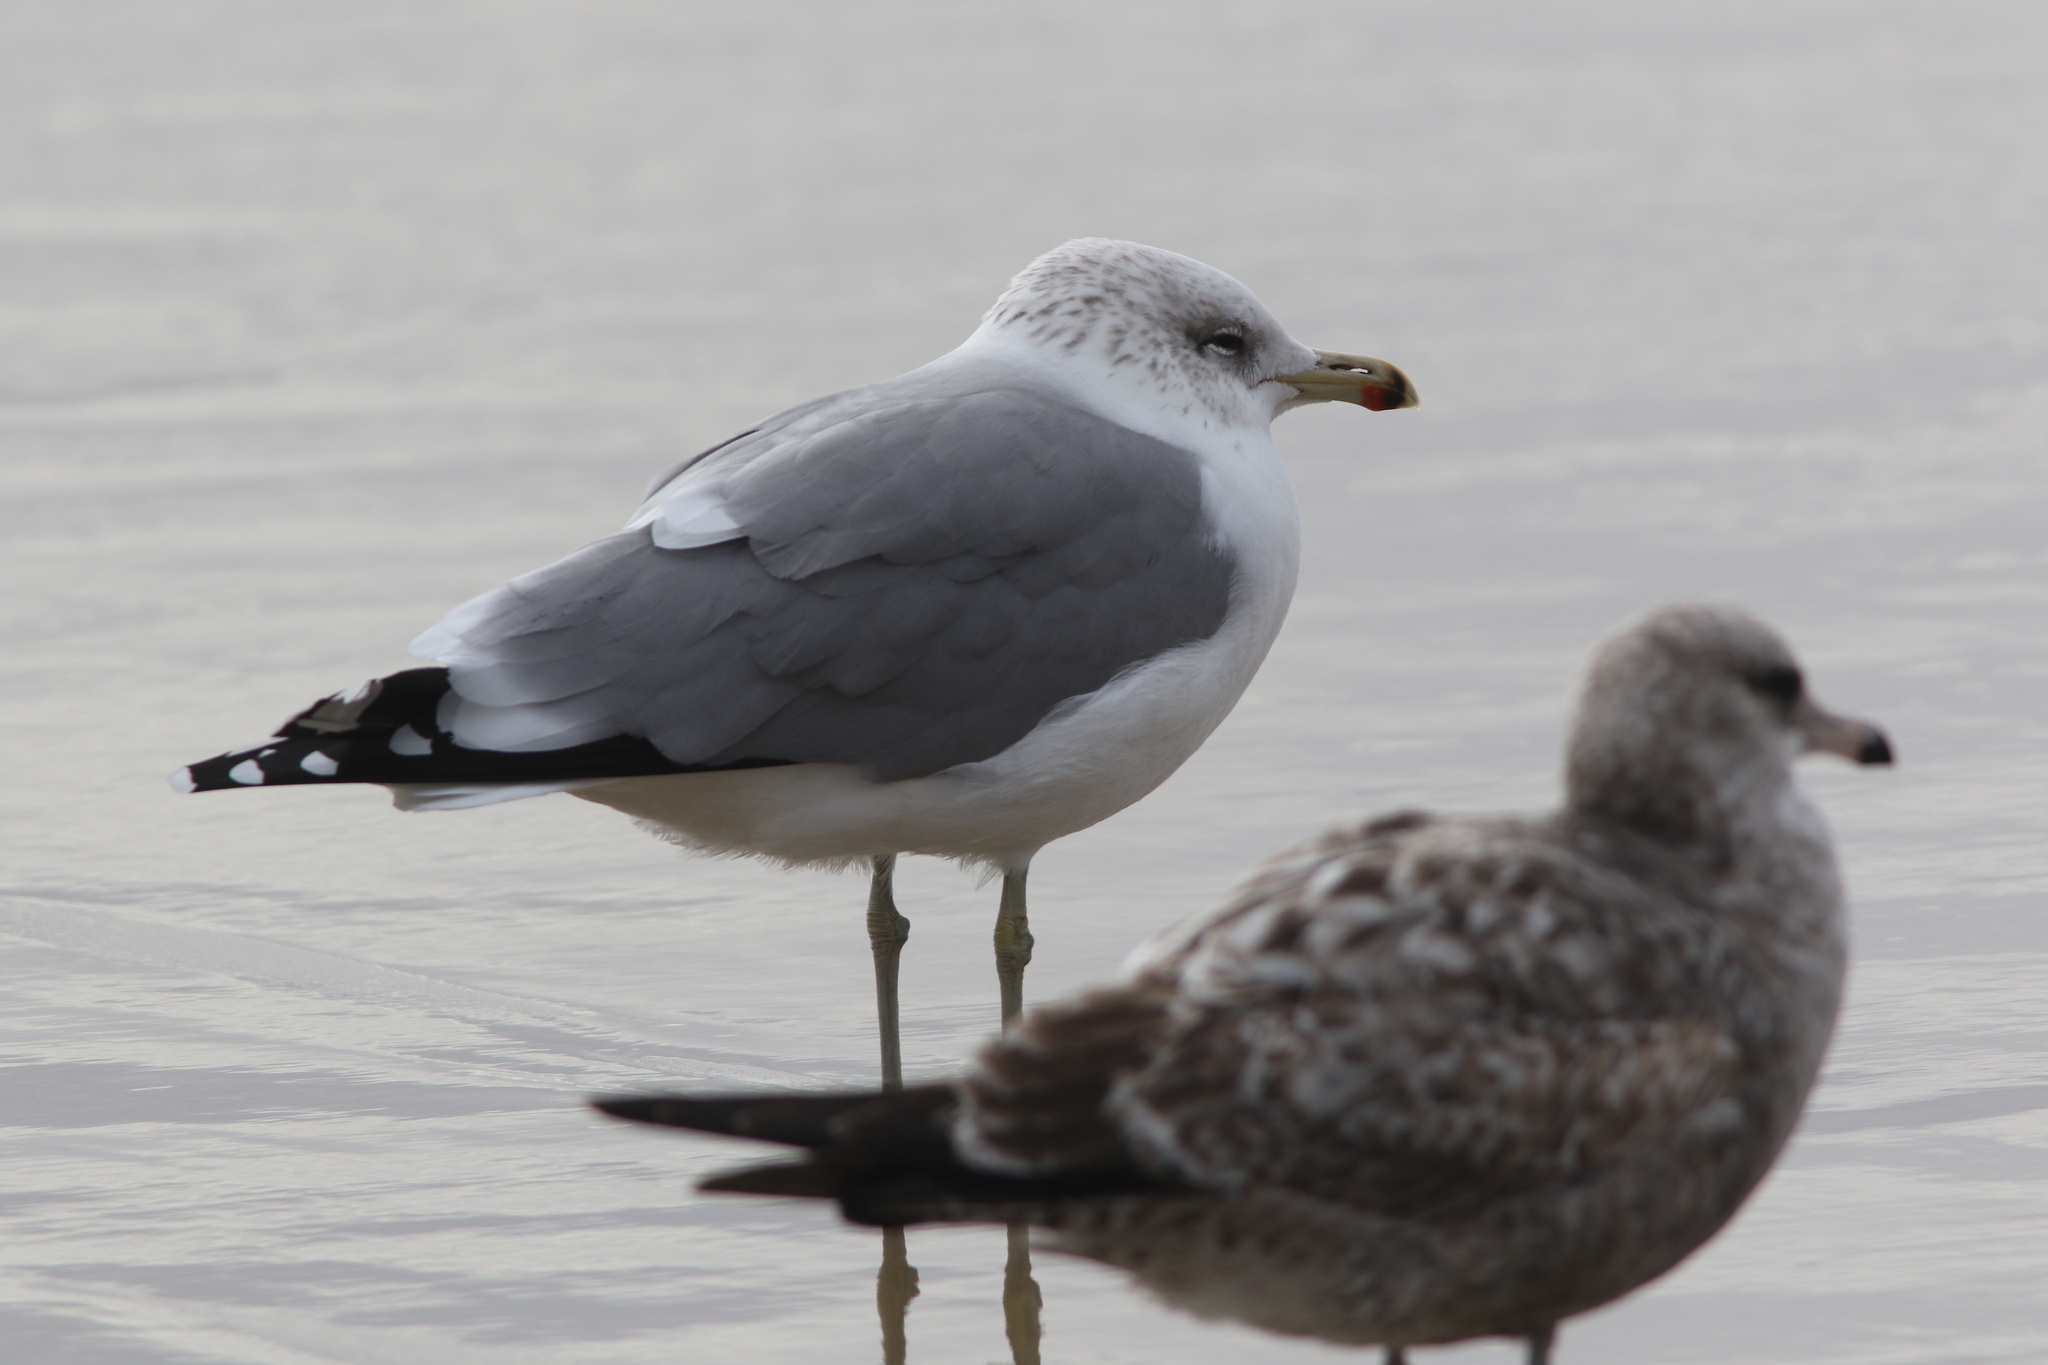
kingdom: Animalia
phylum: Chordata
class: Aves
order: Charadriiformes
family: Laridae
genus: Larus
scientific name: Larus californicus
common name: California gull
